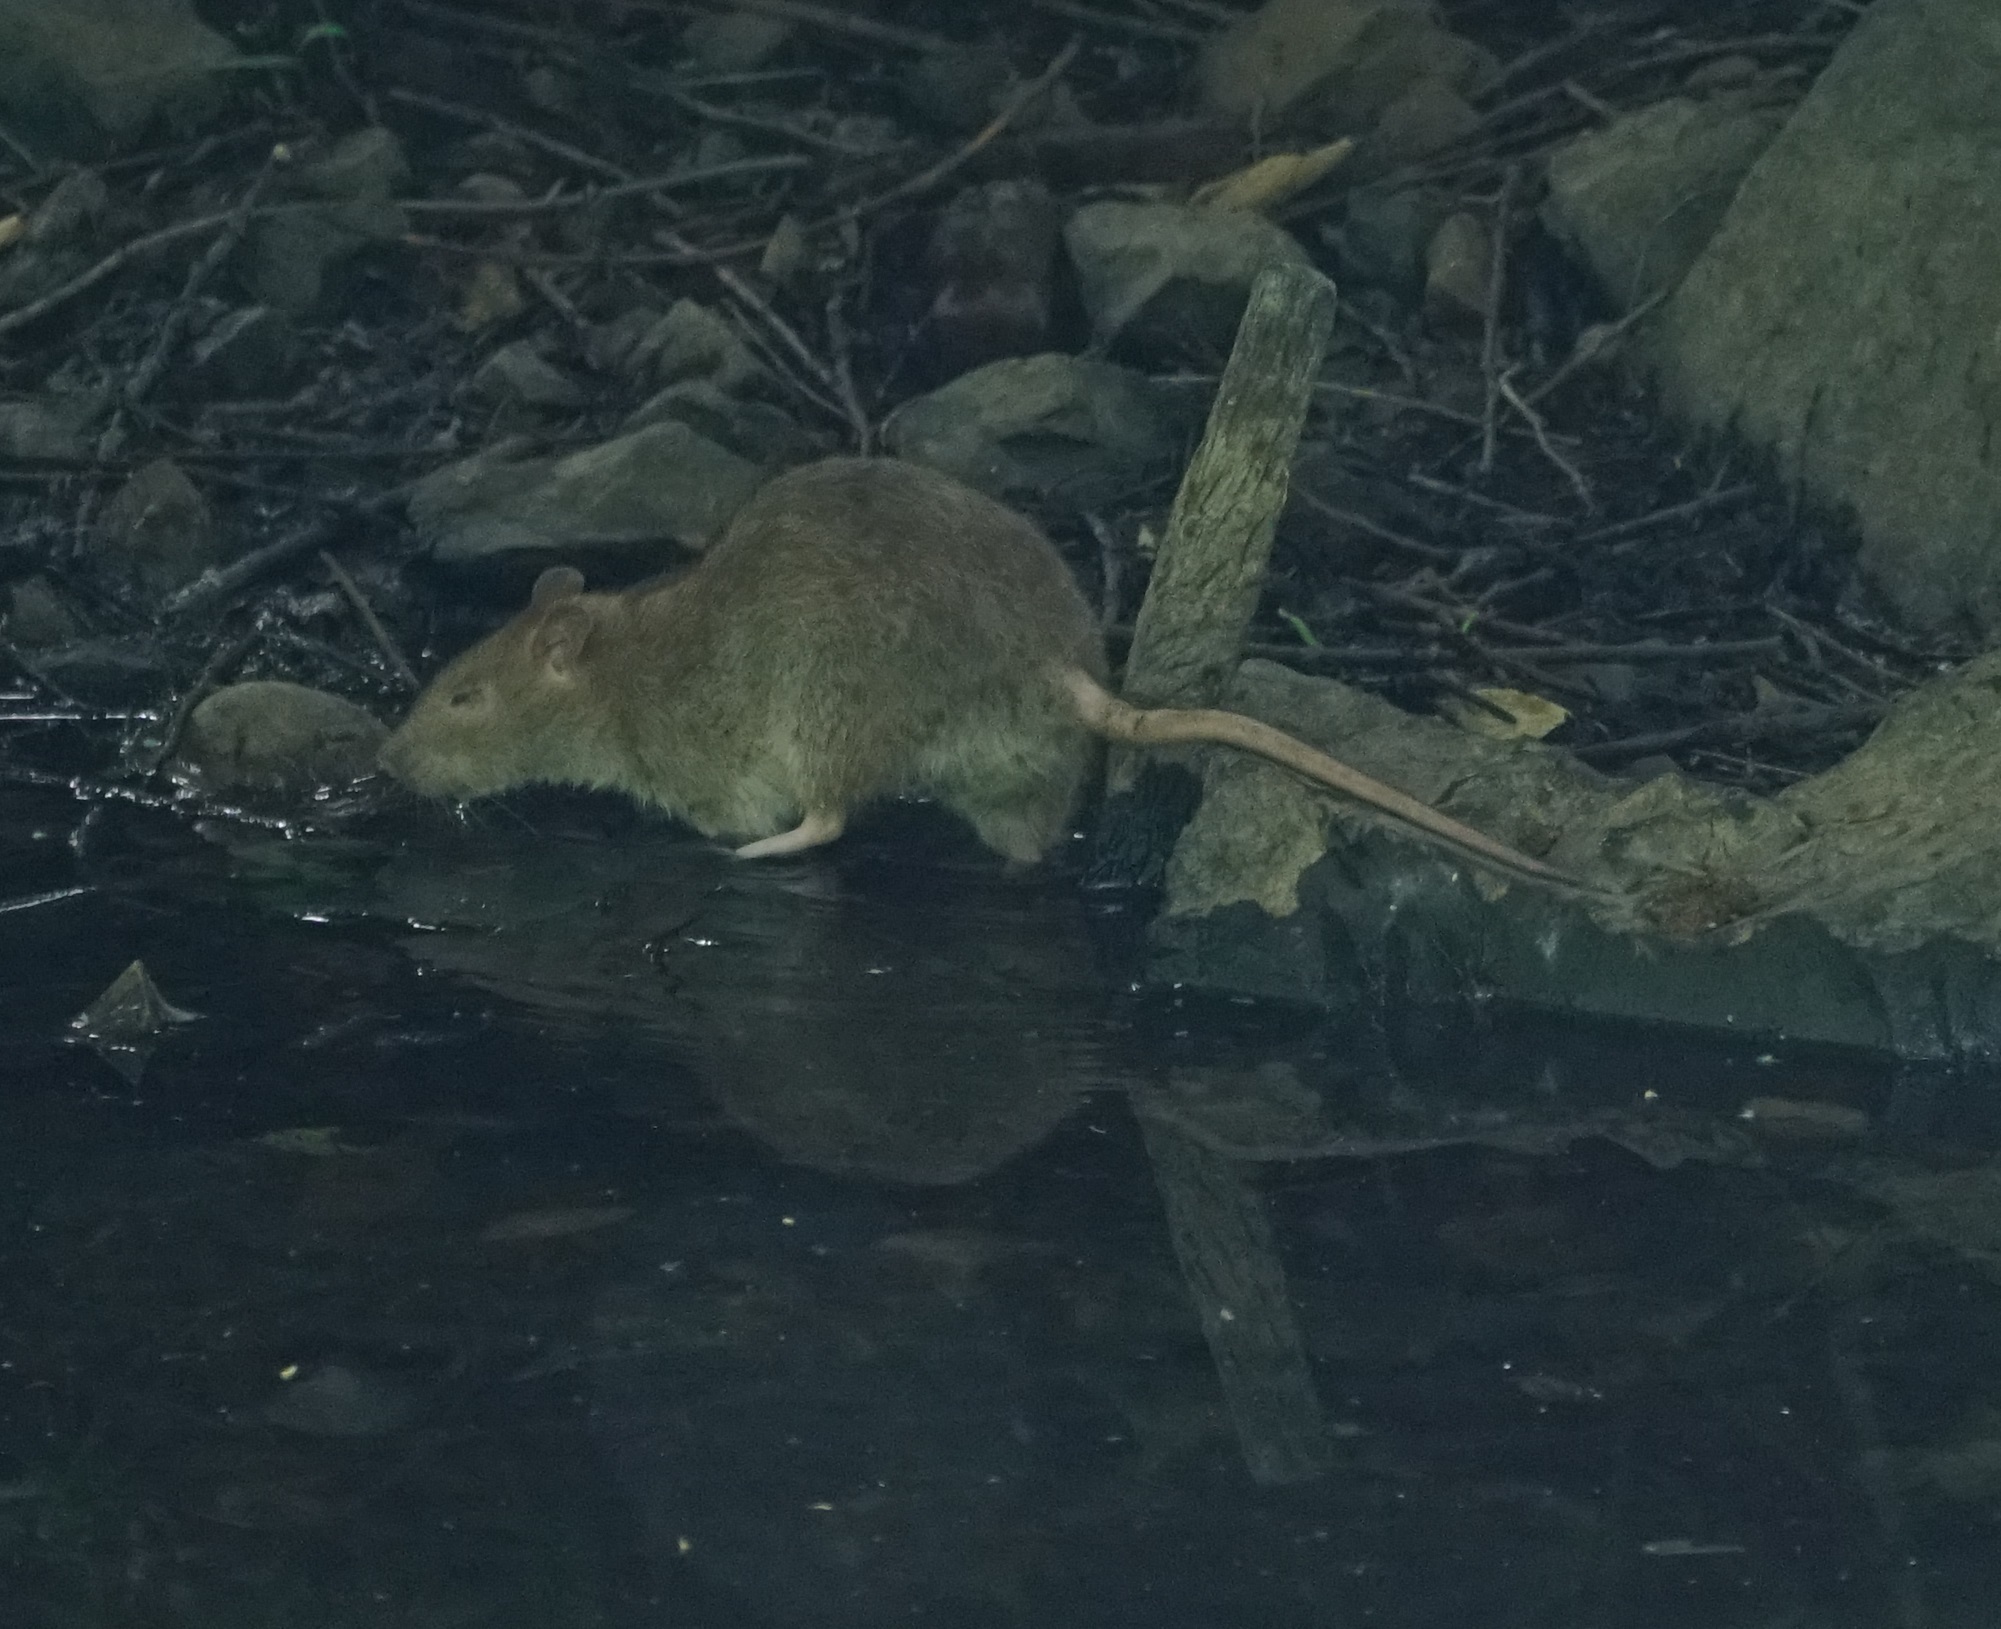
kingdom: Animalia
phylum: Chordata
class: Mammalia
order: Rodentia
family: Muridae
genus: Rattus
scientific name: Rattus norvegicus
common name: Brown rat
